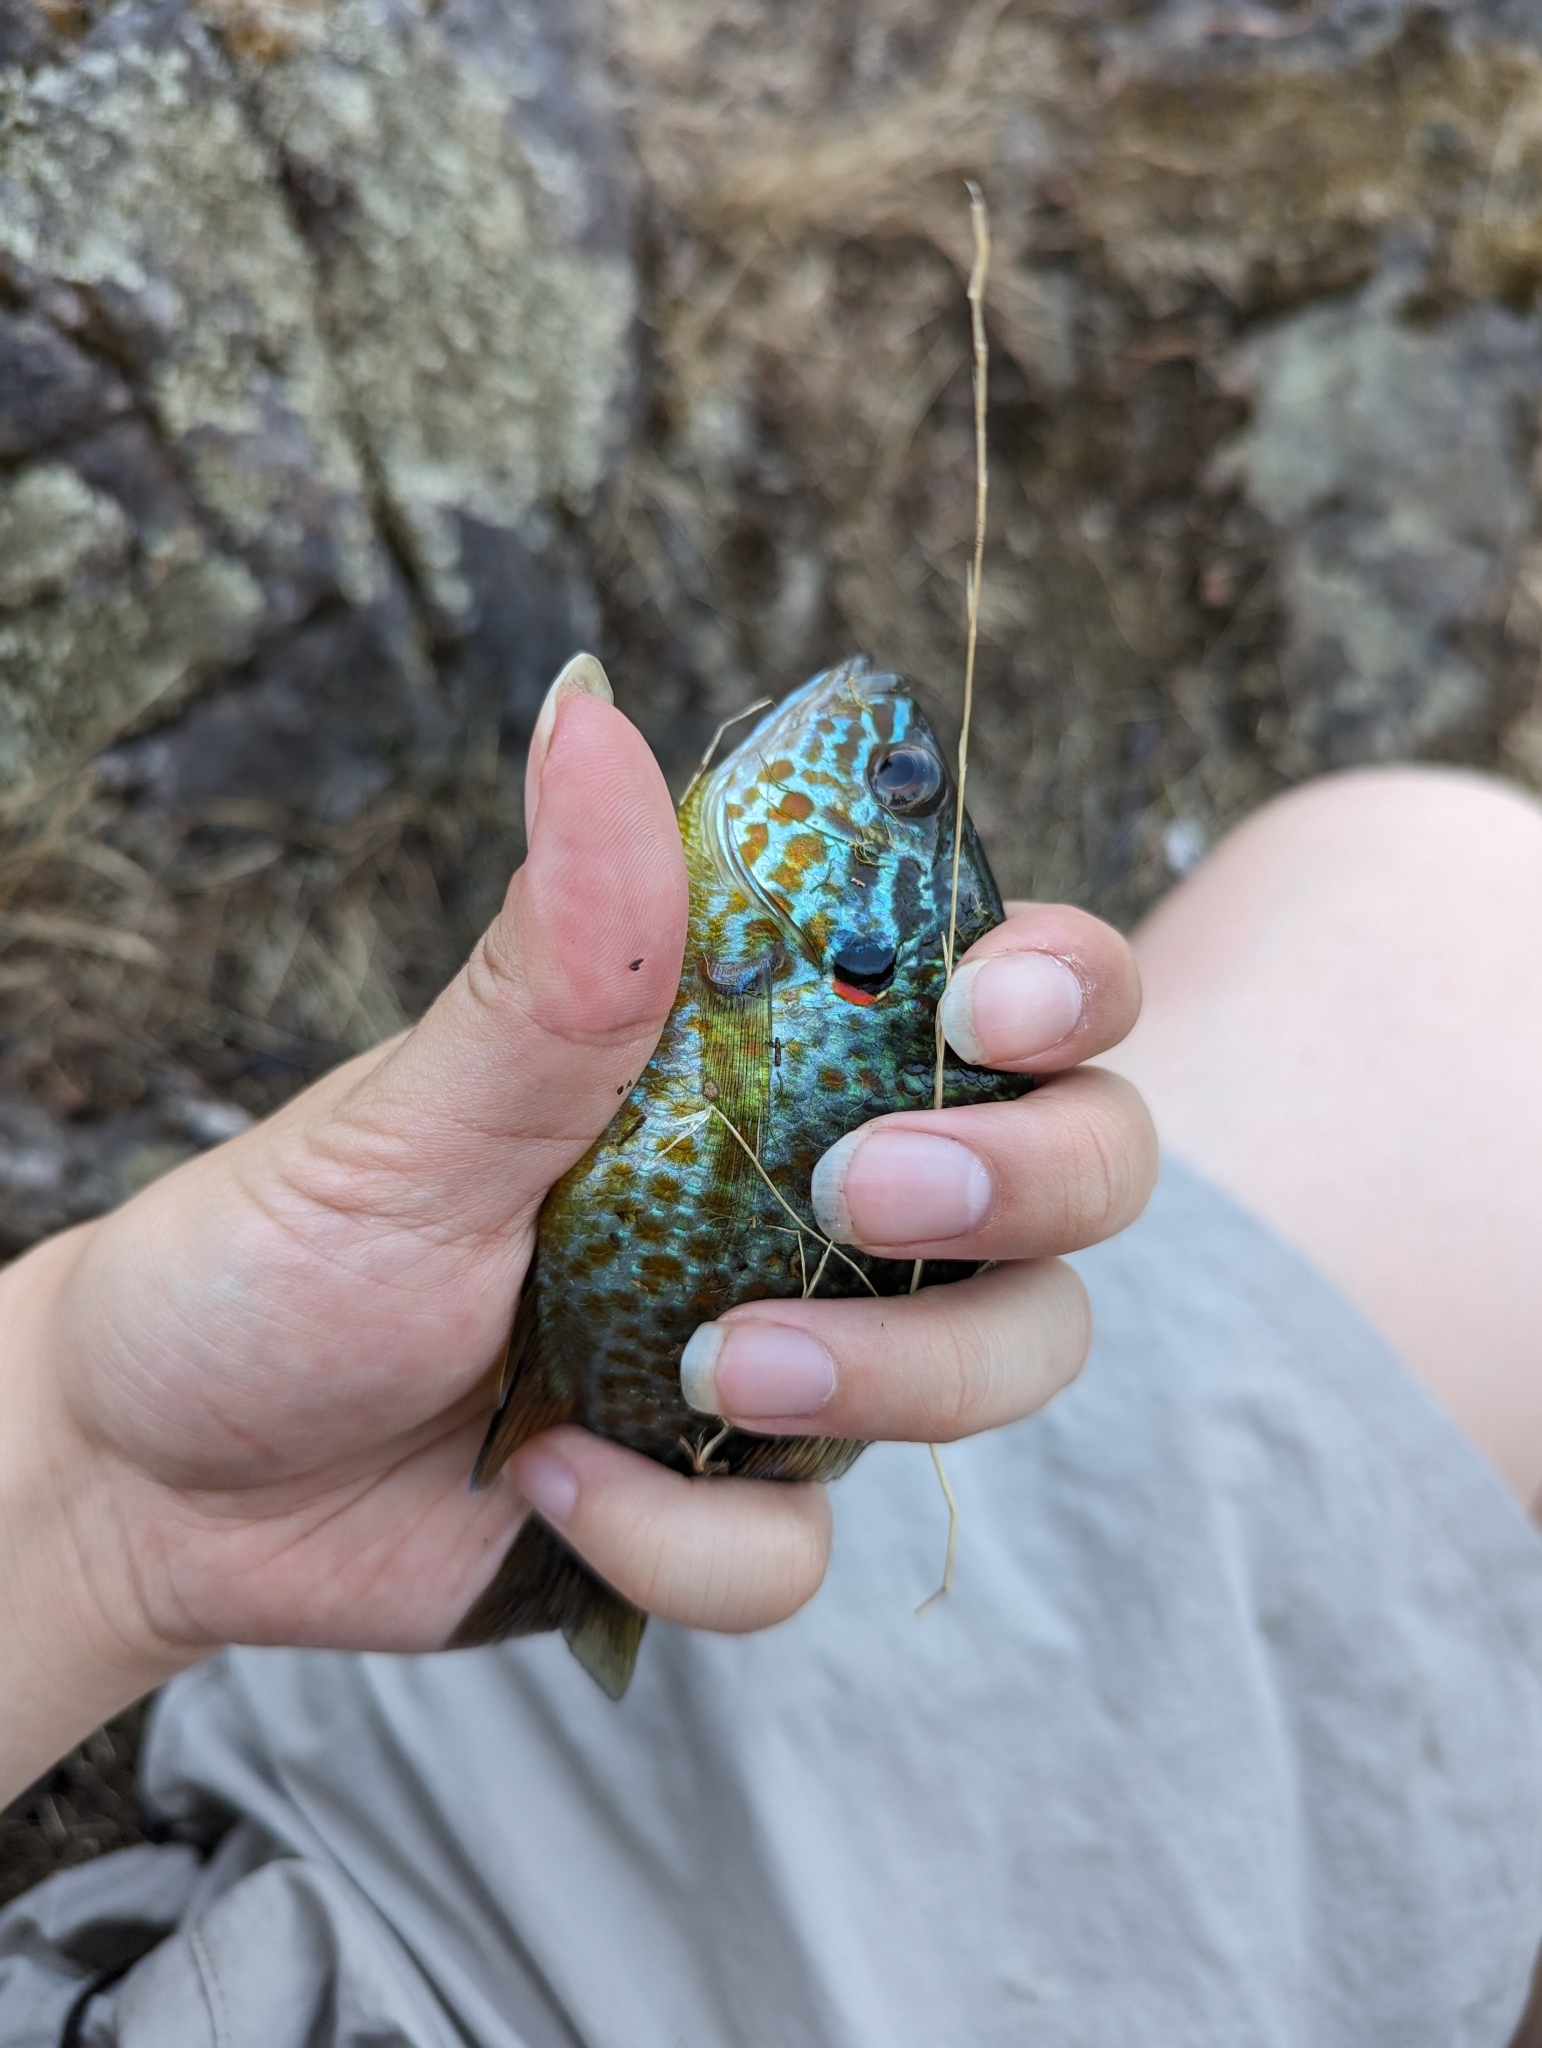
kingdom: Animalia
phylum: Chordata
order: Perciformes
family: Centrarchidae
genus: Lepomis
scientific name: Lepomis gibbosus
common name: Pumpkinseed
